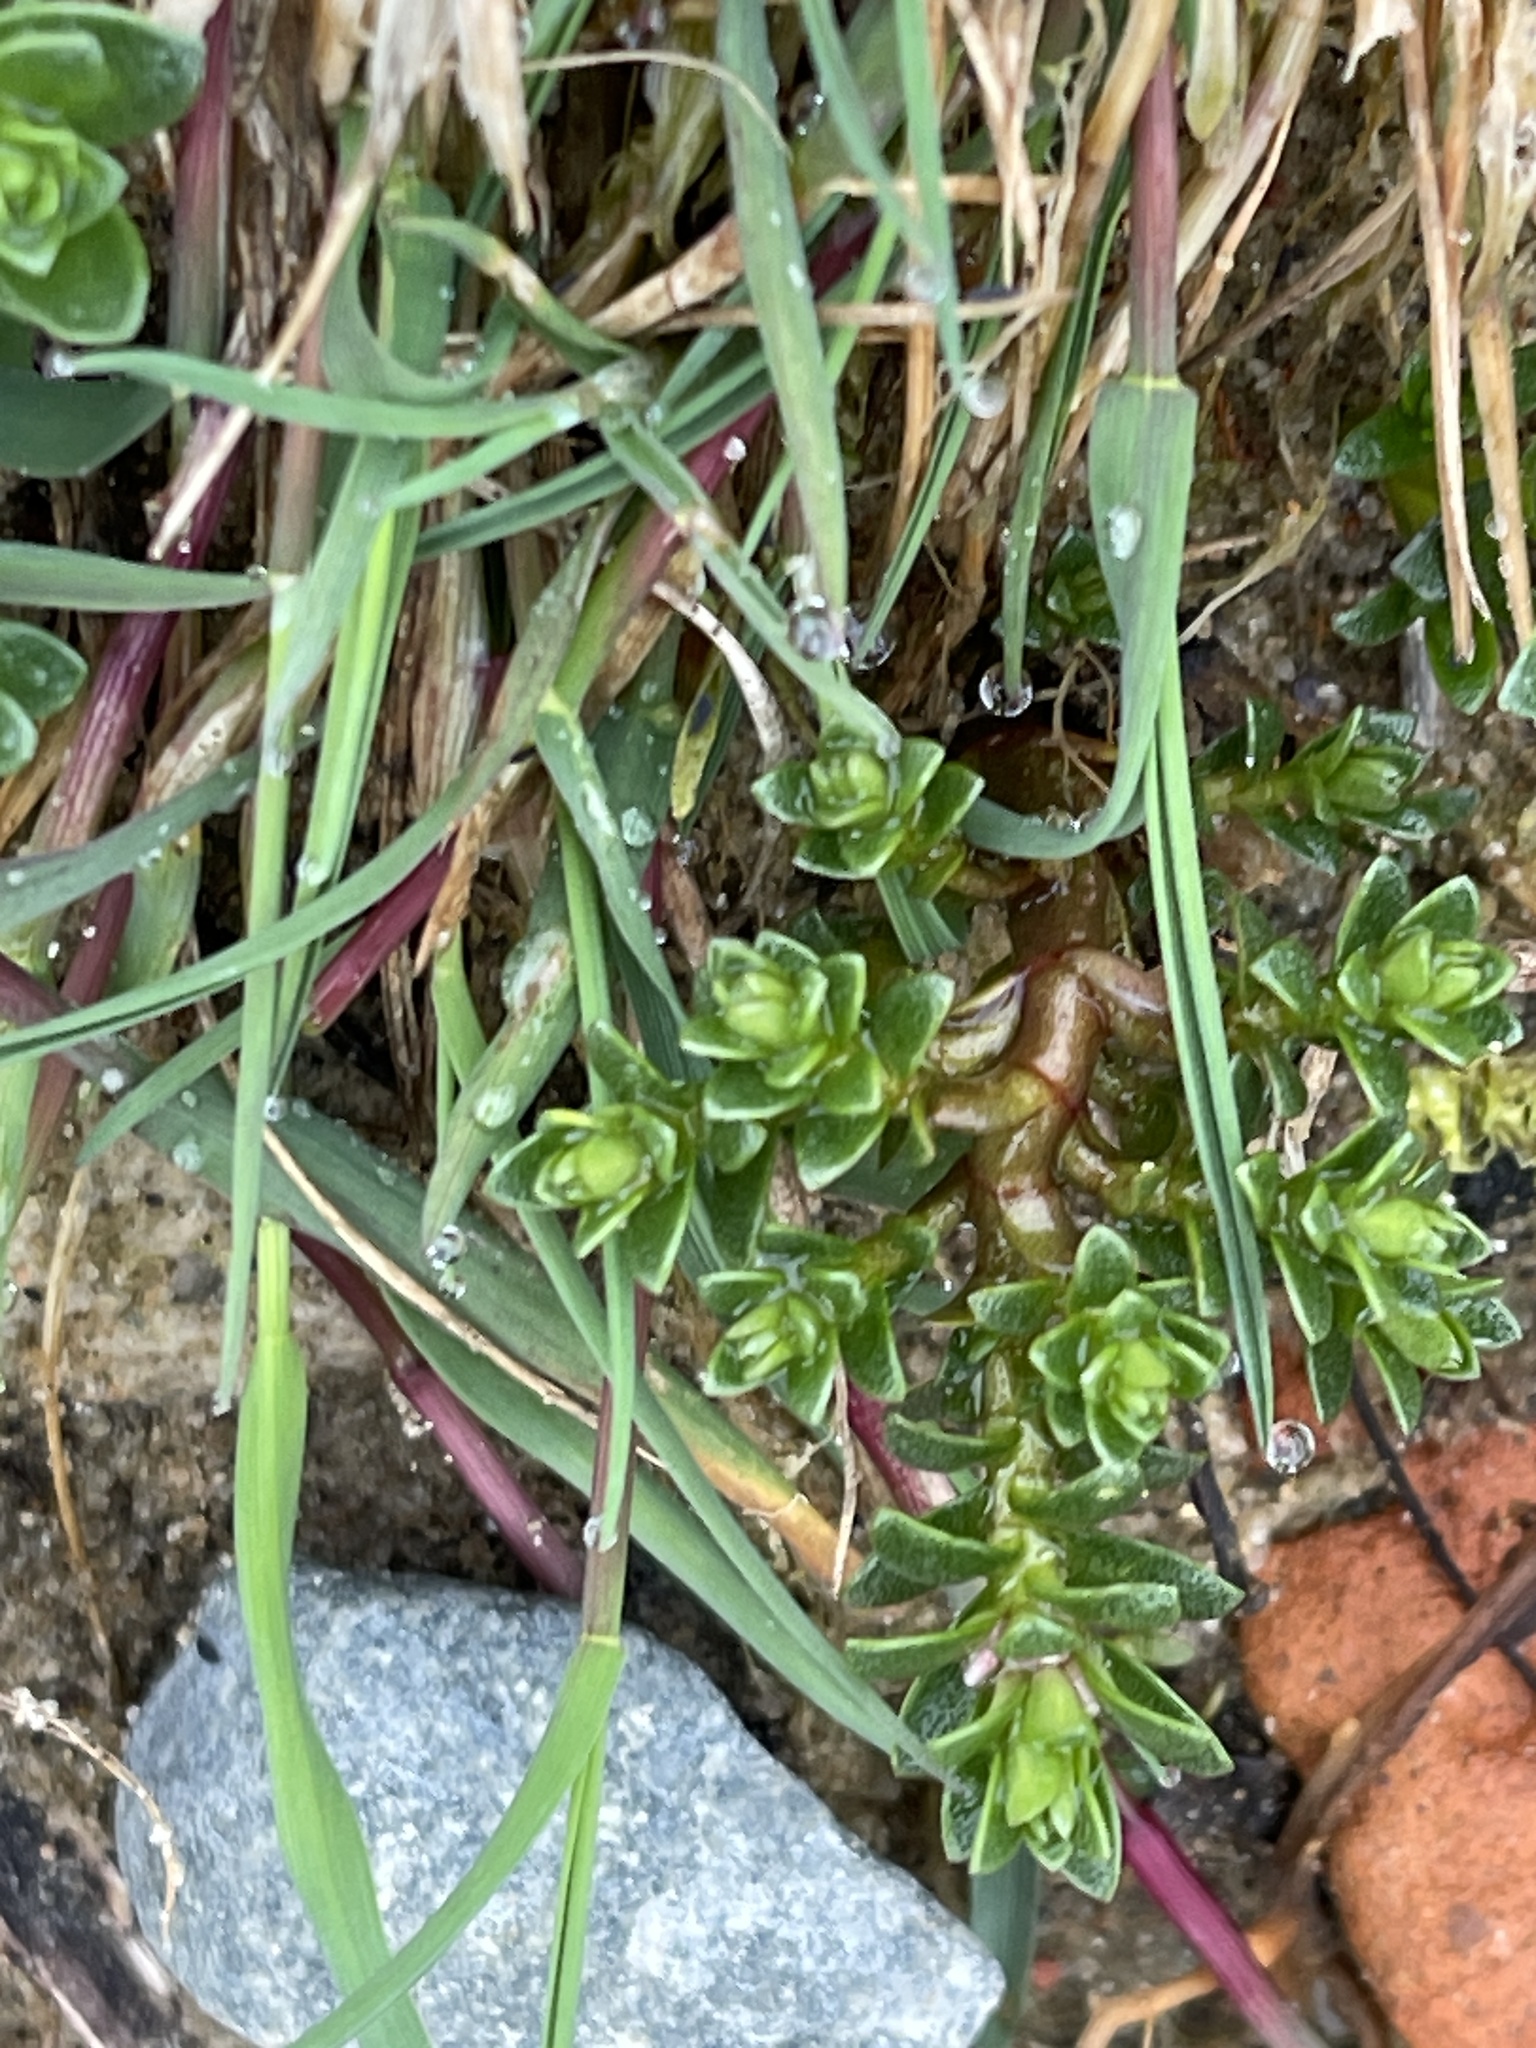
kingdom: Plantae
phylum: Tracheophyta
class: Magnoliopsida
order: Ericales
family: Primulaceae
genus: Lysimachia
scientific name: Lysimachia maritima
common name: Sea milkwort
